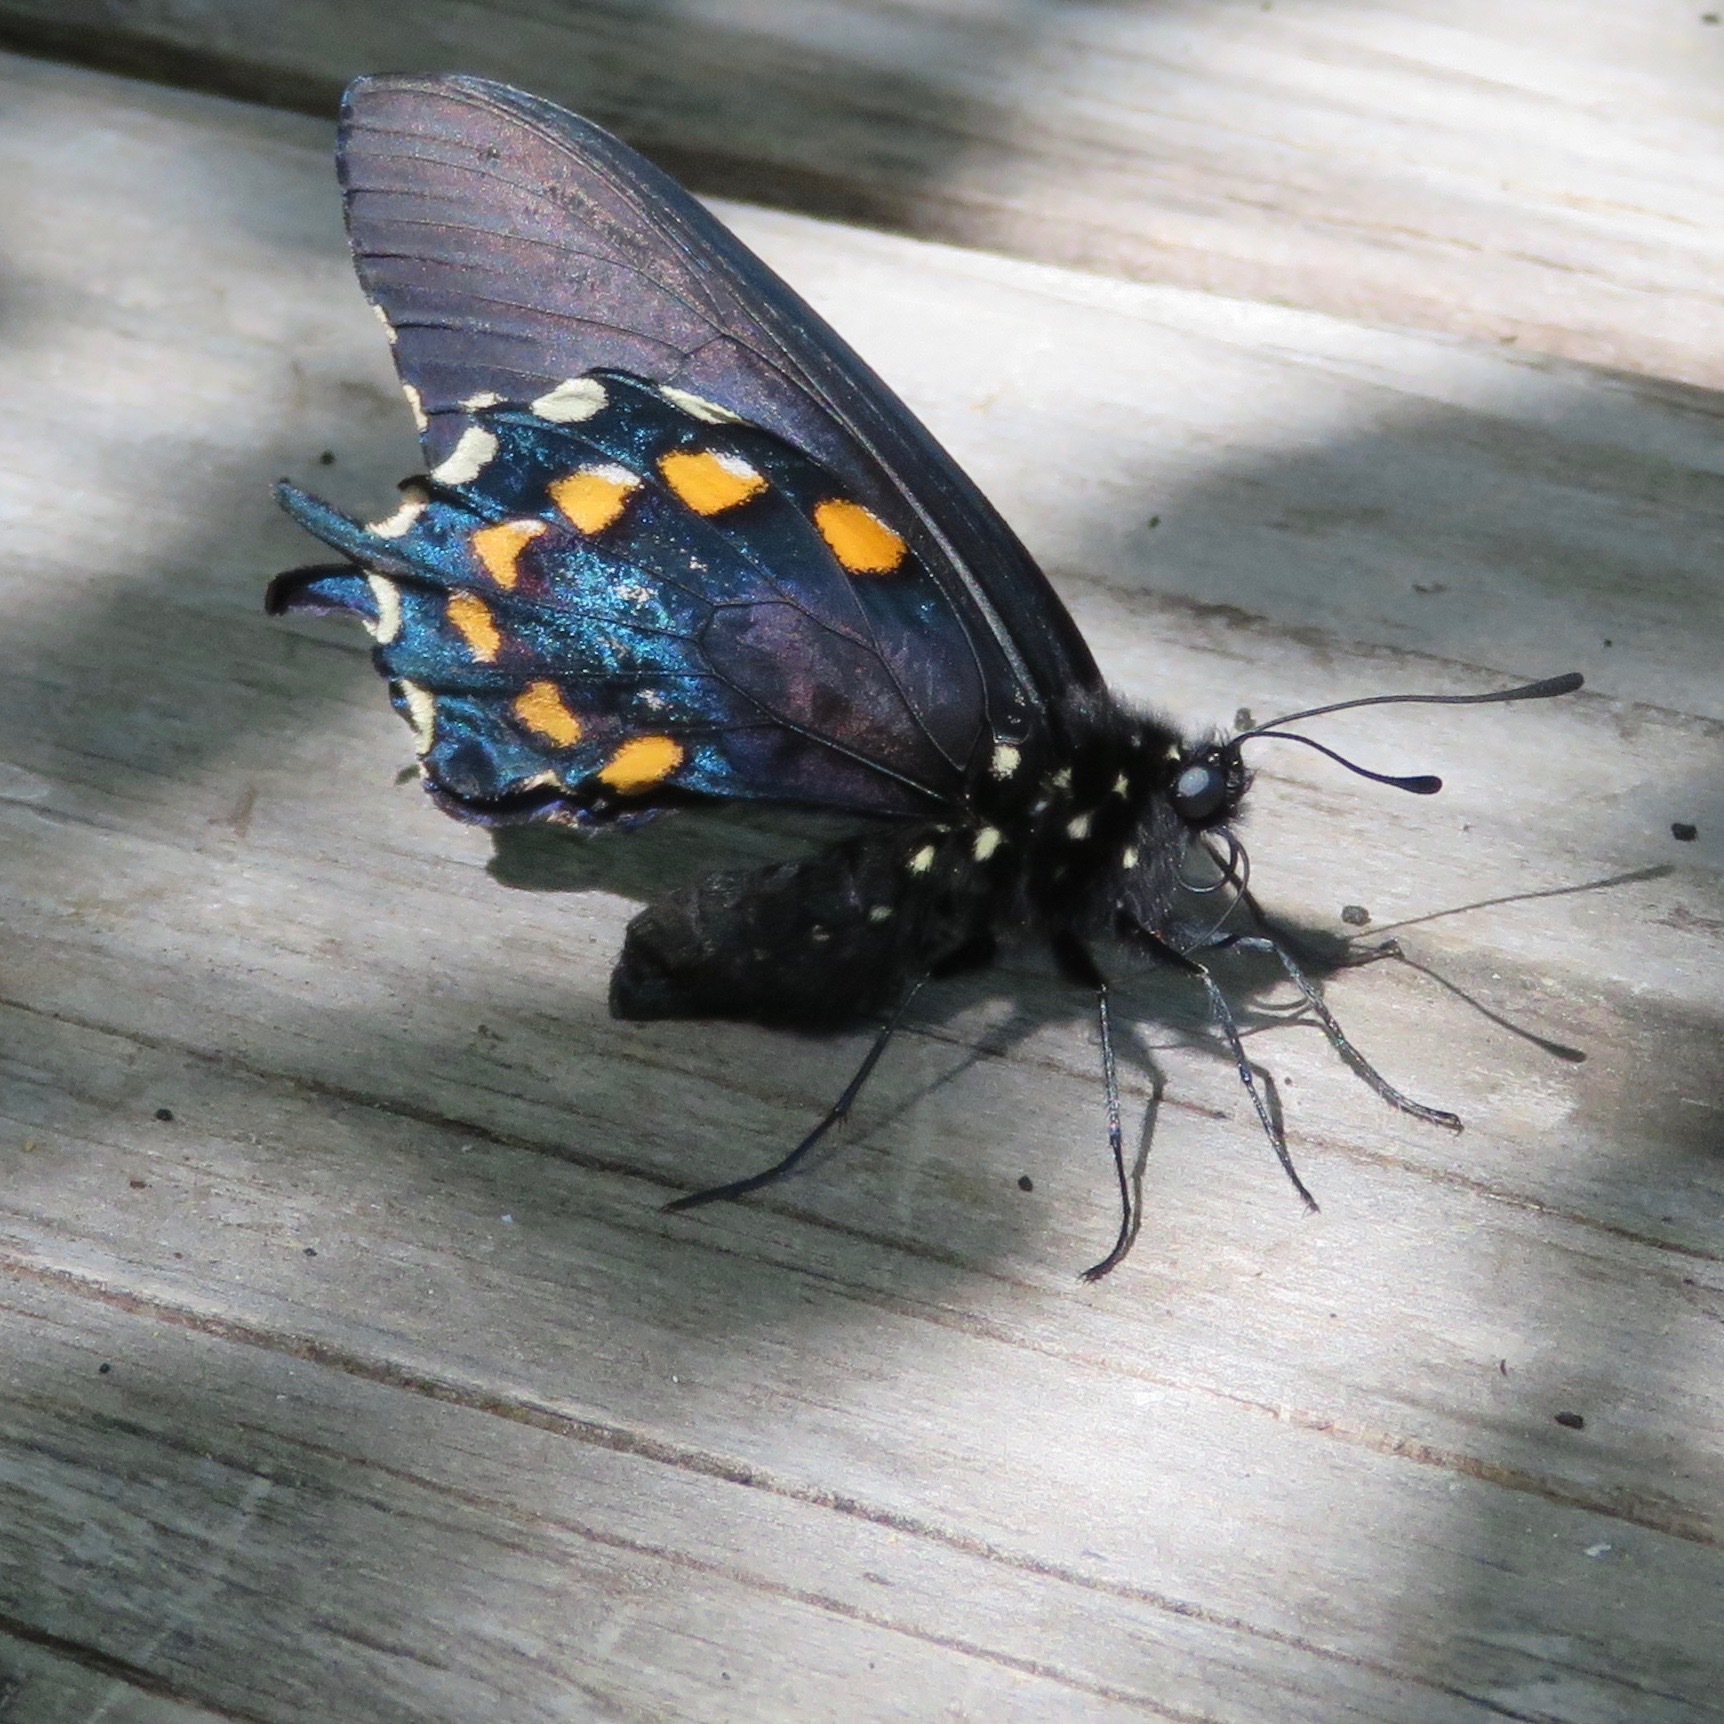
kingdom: Animalia
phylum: Arthropoda
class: Insecta
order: Lepidoptera
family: Papilionidae
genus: Battus
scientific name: Battus philenor
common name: Pipevine swallowtail
